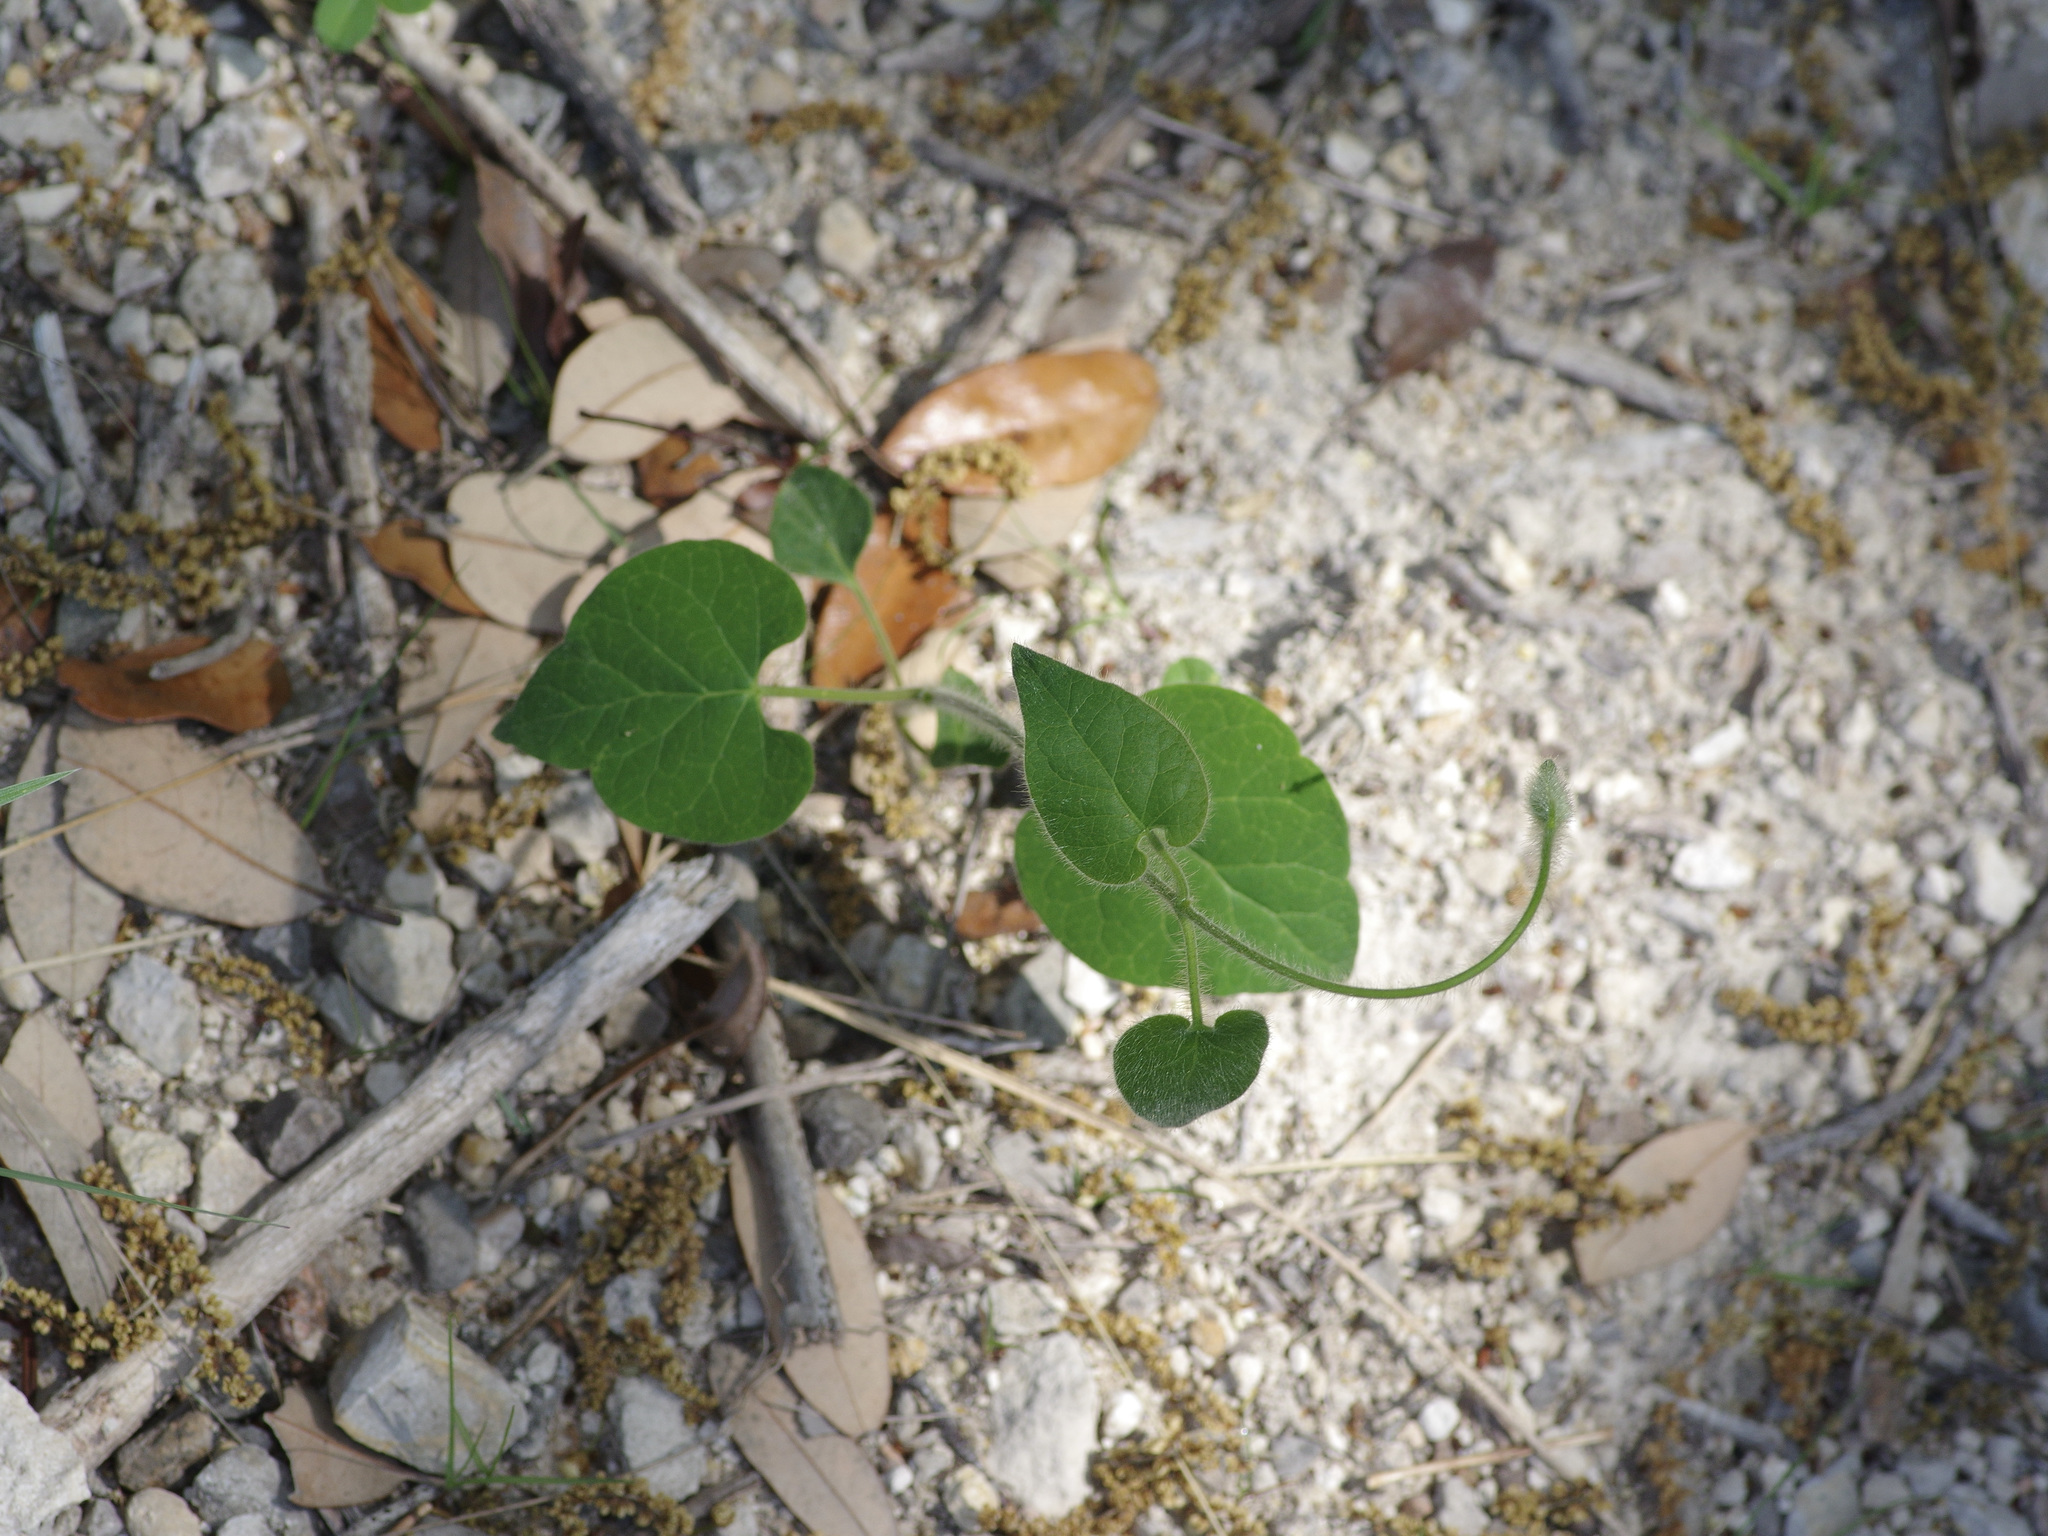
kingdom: Plantae
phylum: Tracheophyta
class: Magnoliopsida
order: Gentianales
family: Apocynaceae
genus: Dictyanthus
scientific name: Dictyanthus reticulatus
